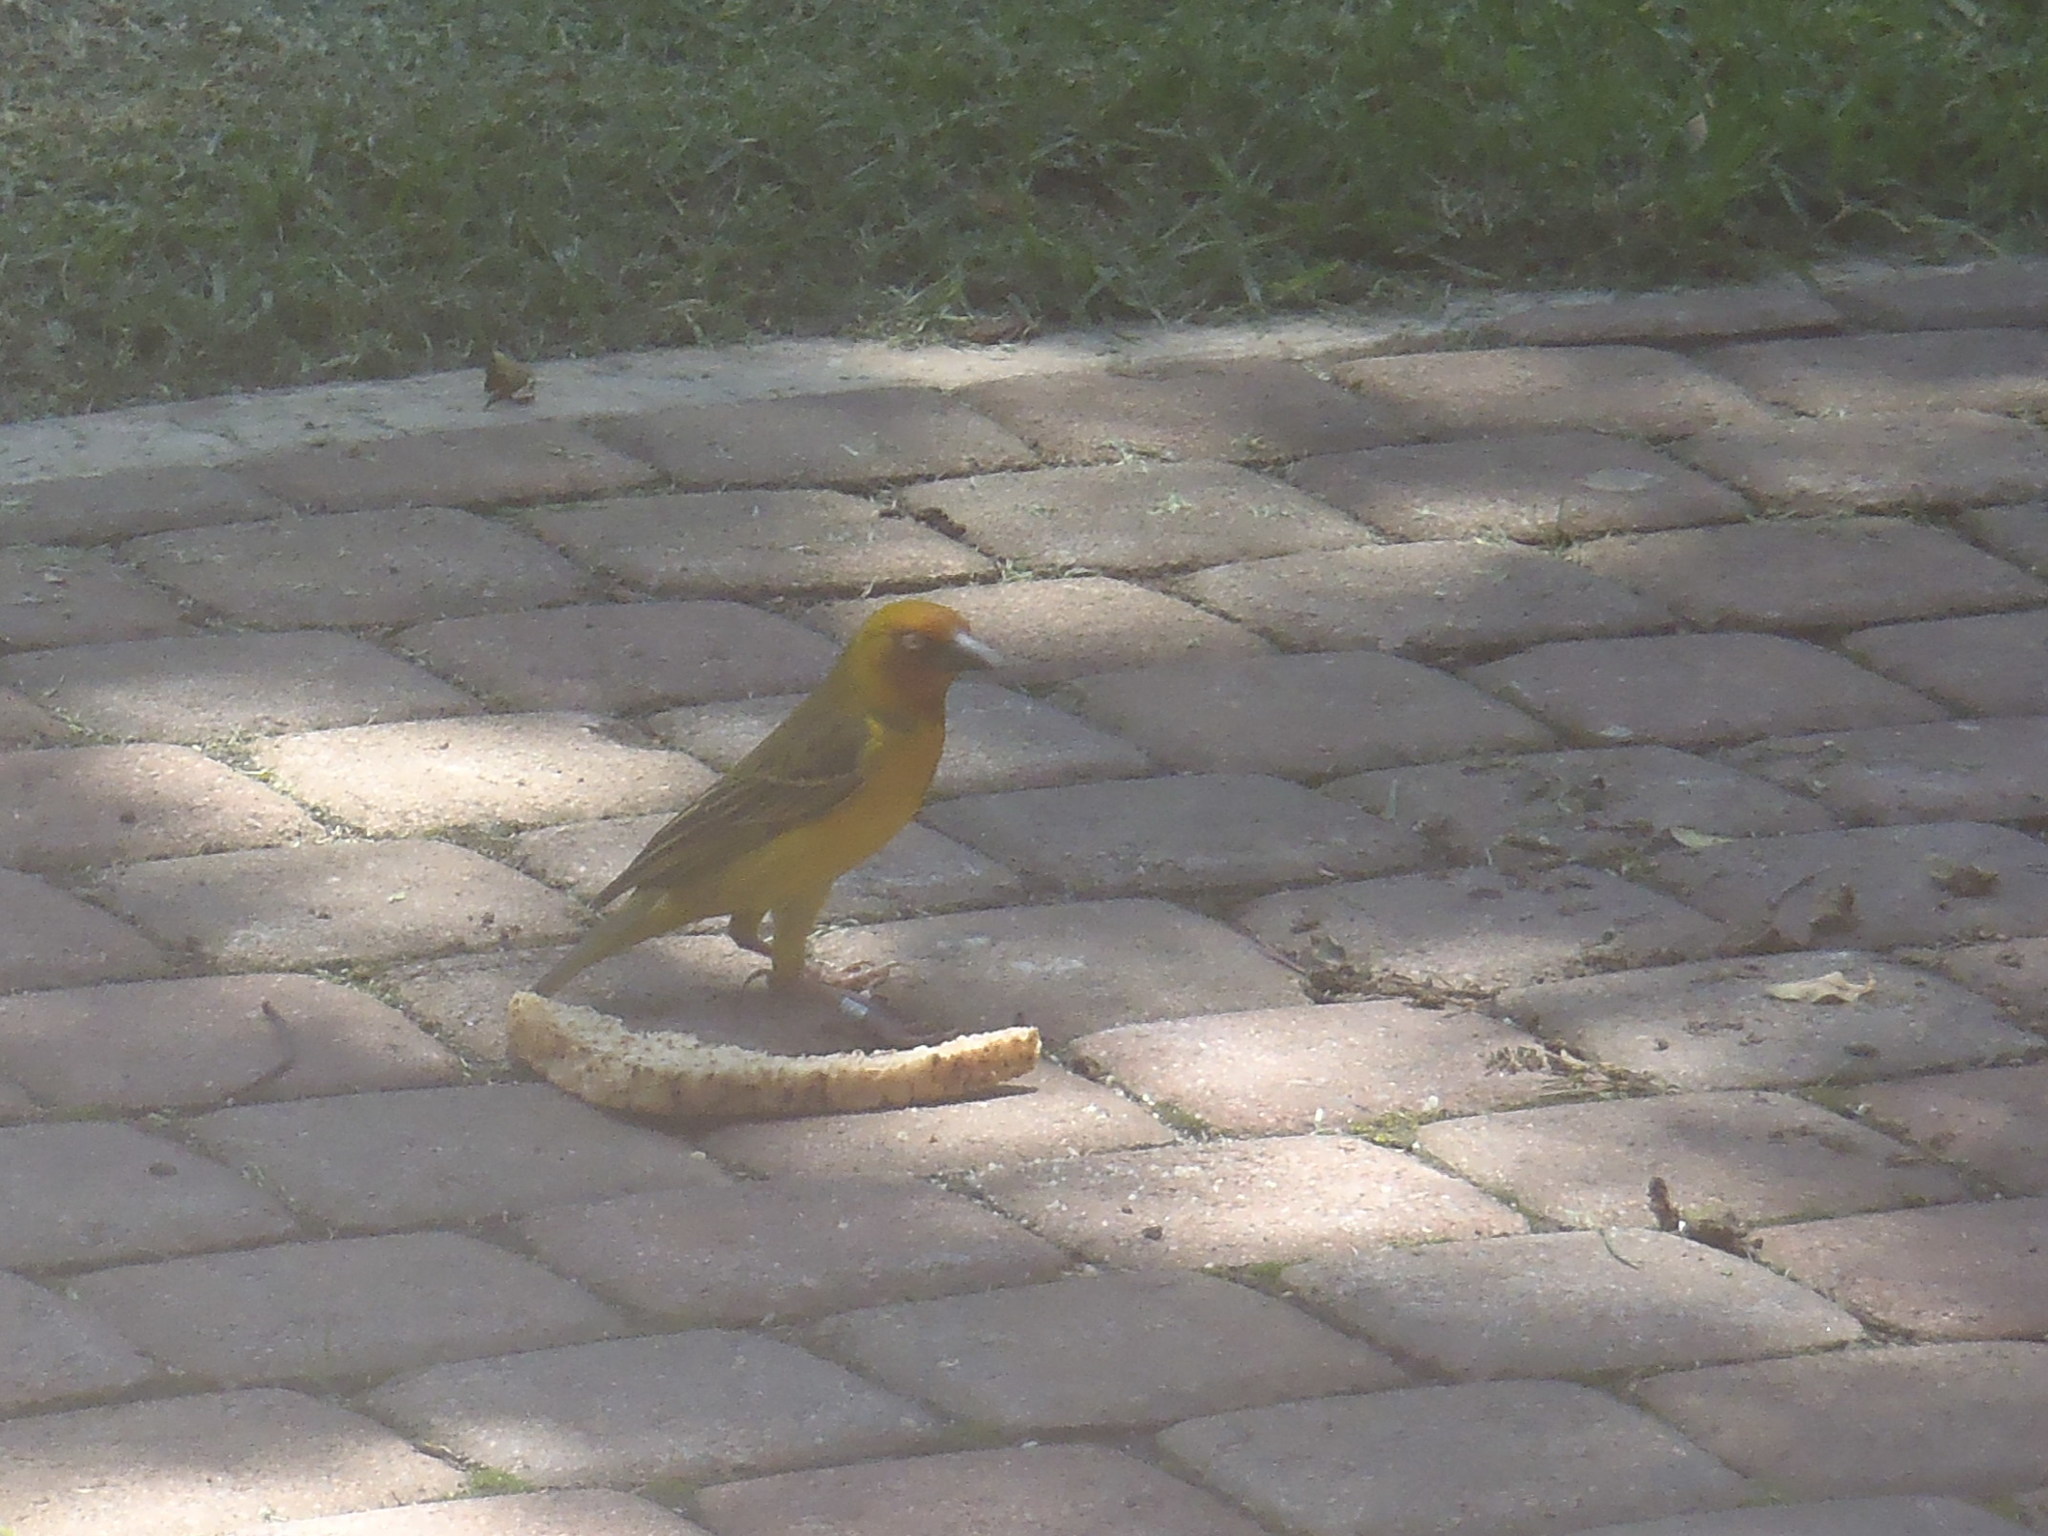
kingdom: Animalia
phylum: Chordata
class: Aves
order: Passeriformes
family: Ploceidae
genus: Ploceus
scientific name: Ploceus capensis
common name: Cape weaver
